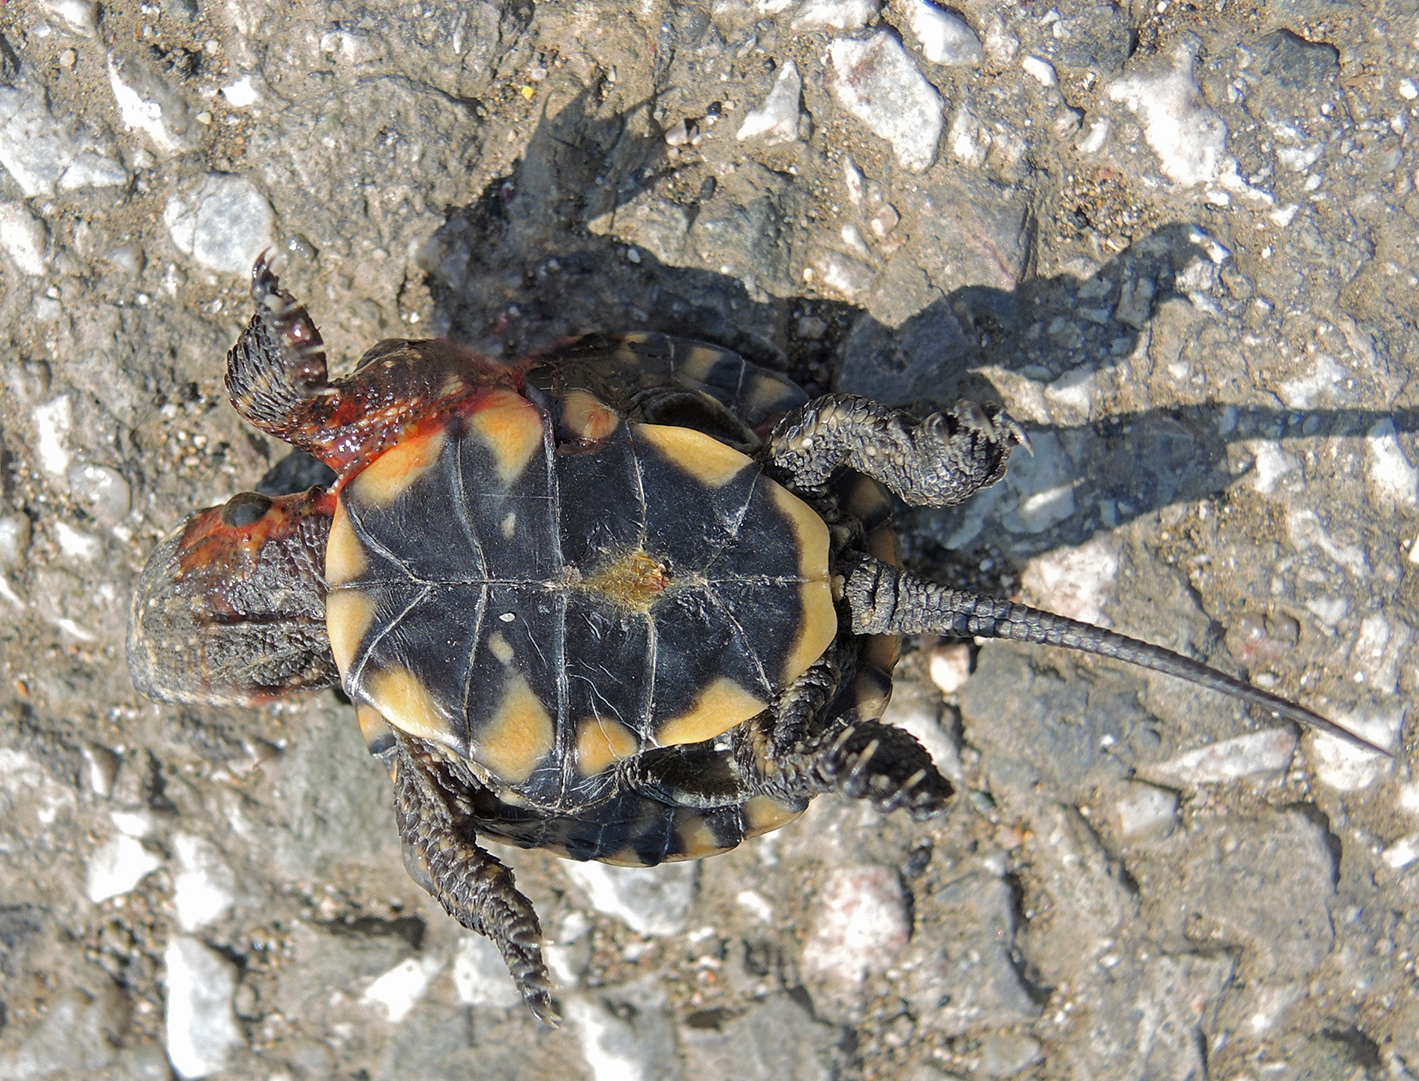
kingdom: Animalia
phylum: Chordata
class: Testudines
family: Emydidae
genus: Emys
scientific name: Emys orbicularis
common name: European pond turtle
